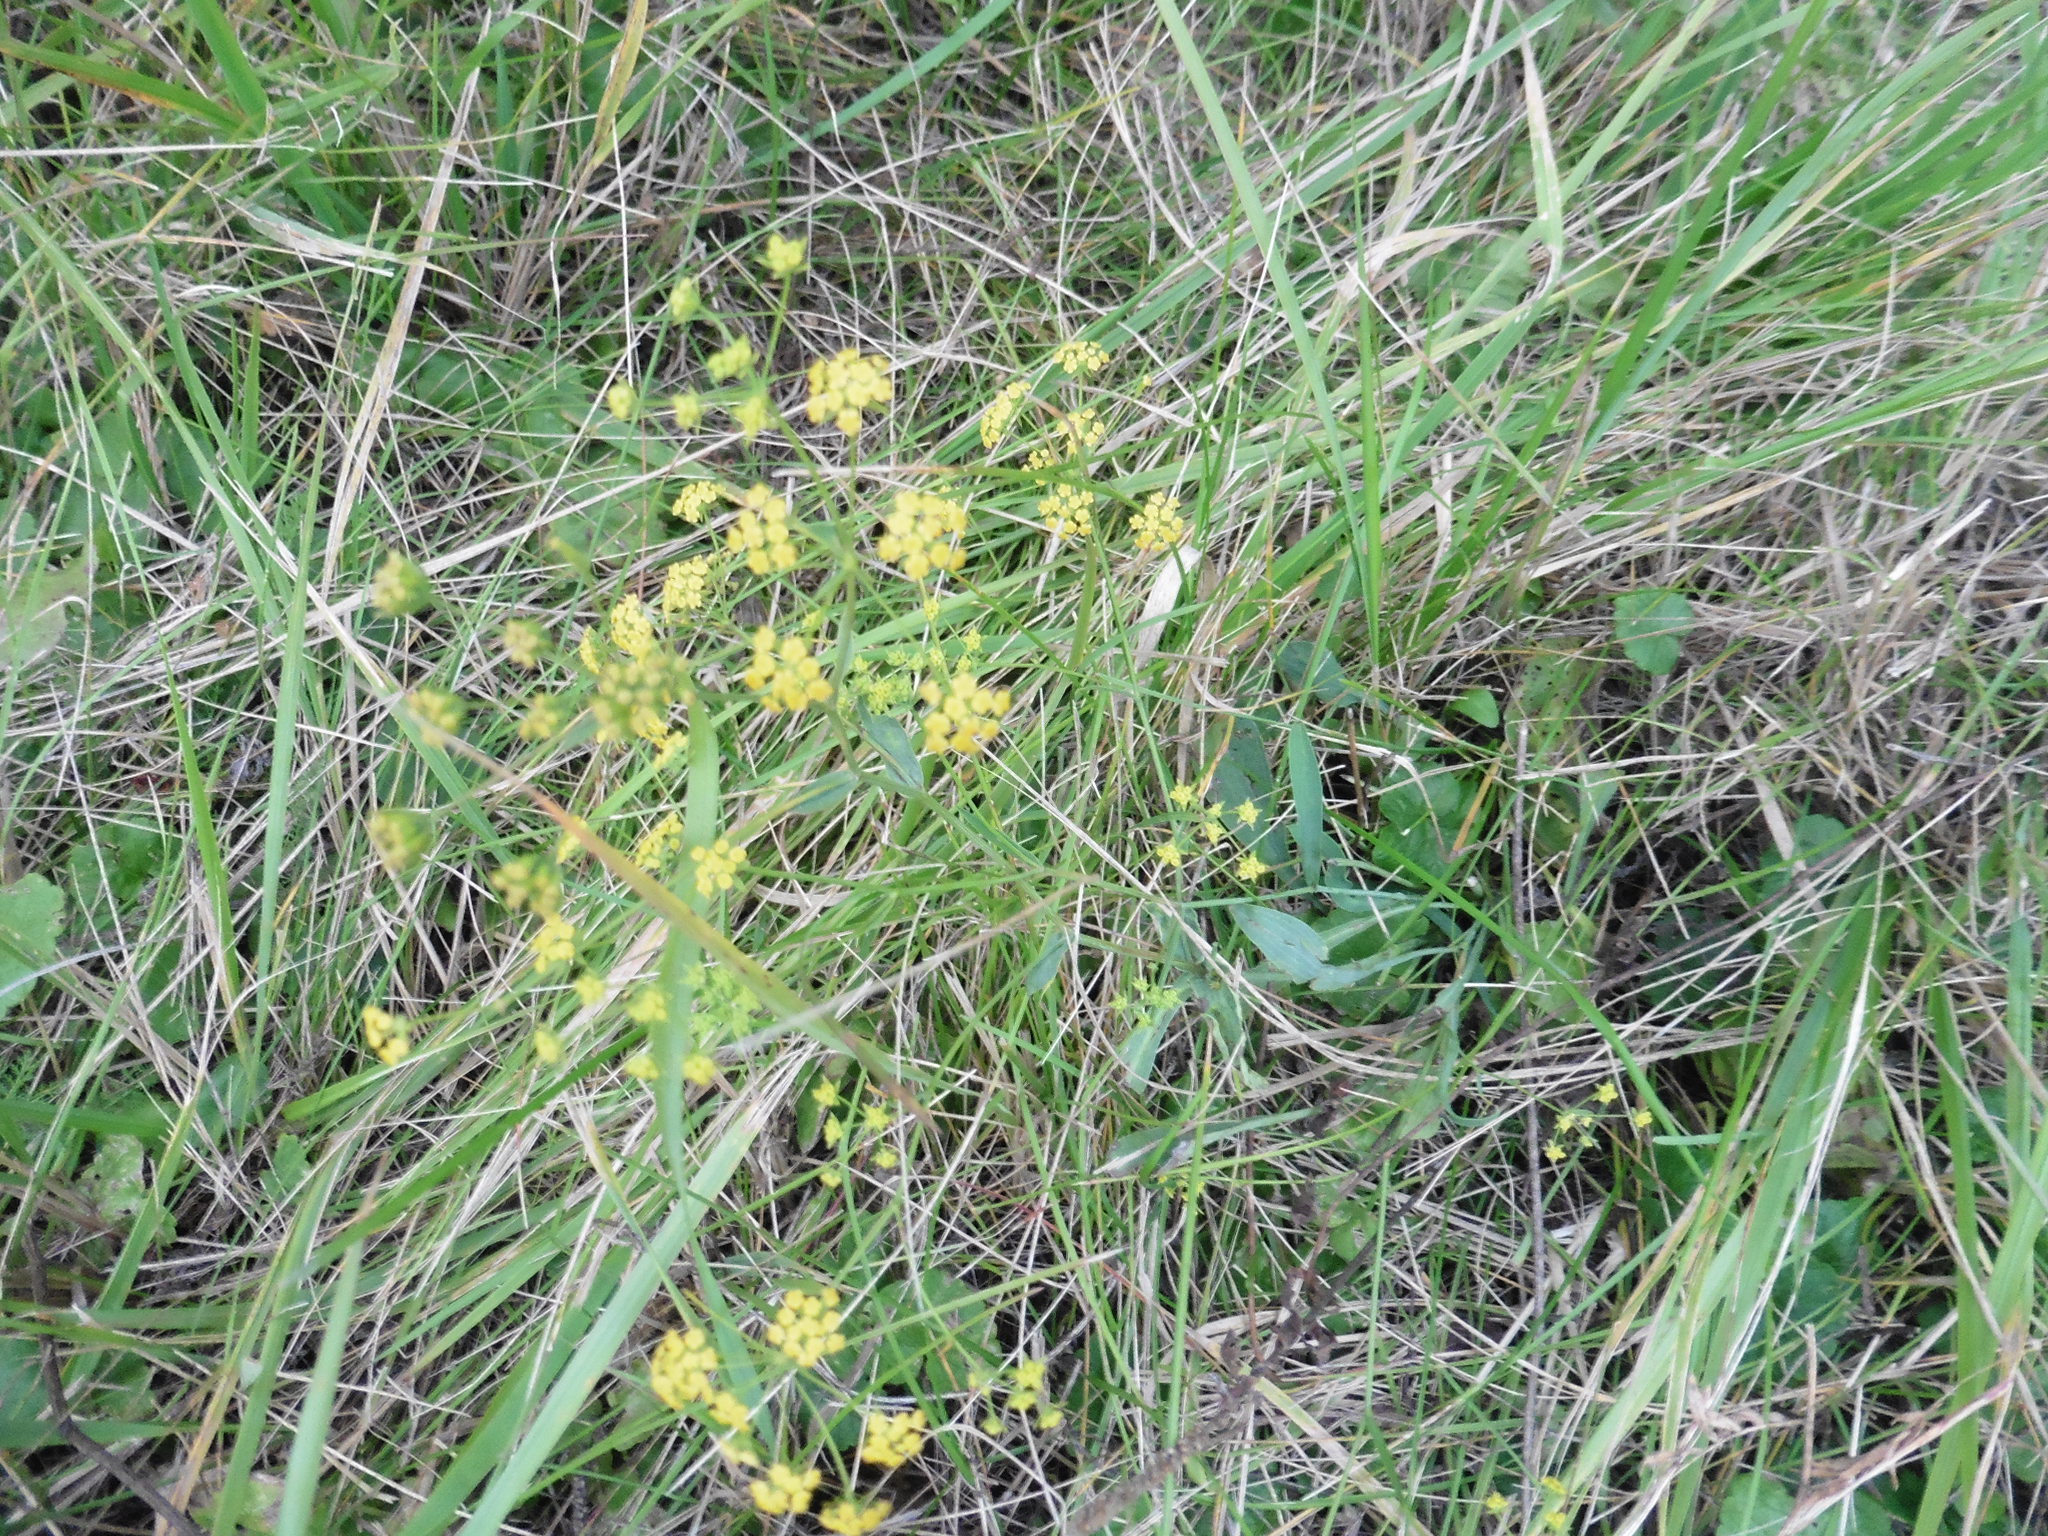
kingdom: Plantae
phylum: Tracheophyta
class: Magnoliopsida
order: Apiales
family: Apiaceae
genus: Bupleurum
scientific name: Bupleurum falcatum
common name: Sickle-leaved hare's-ear
